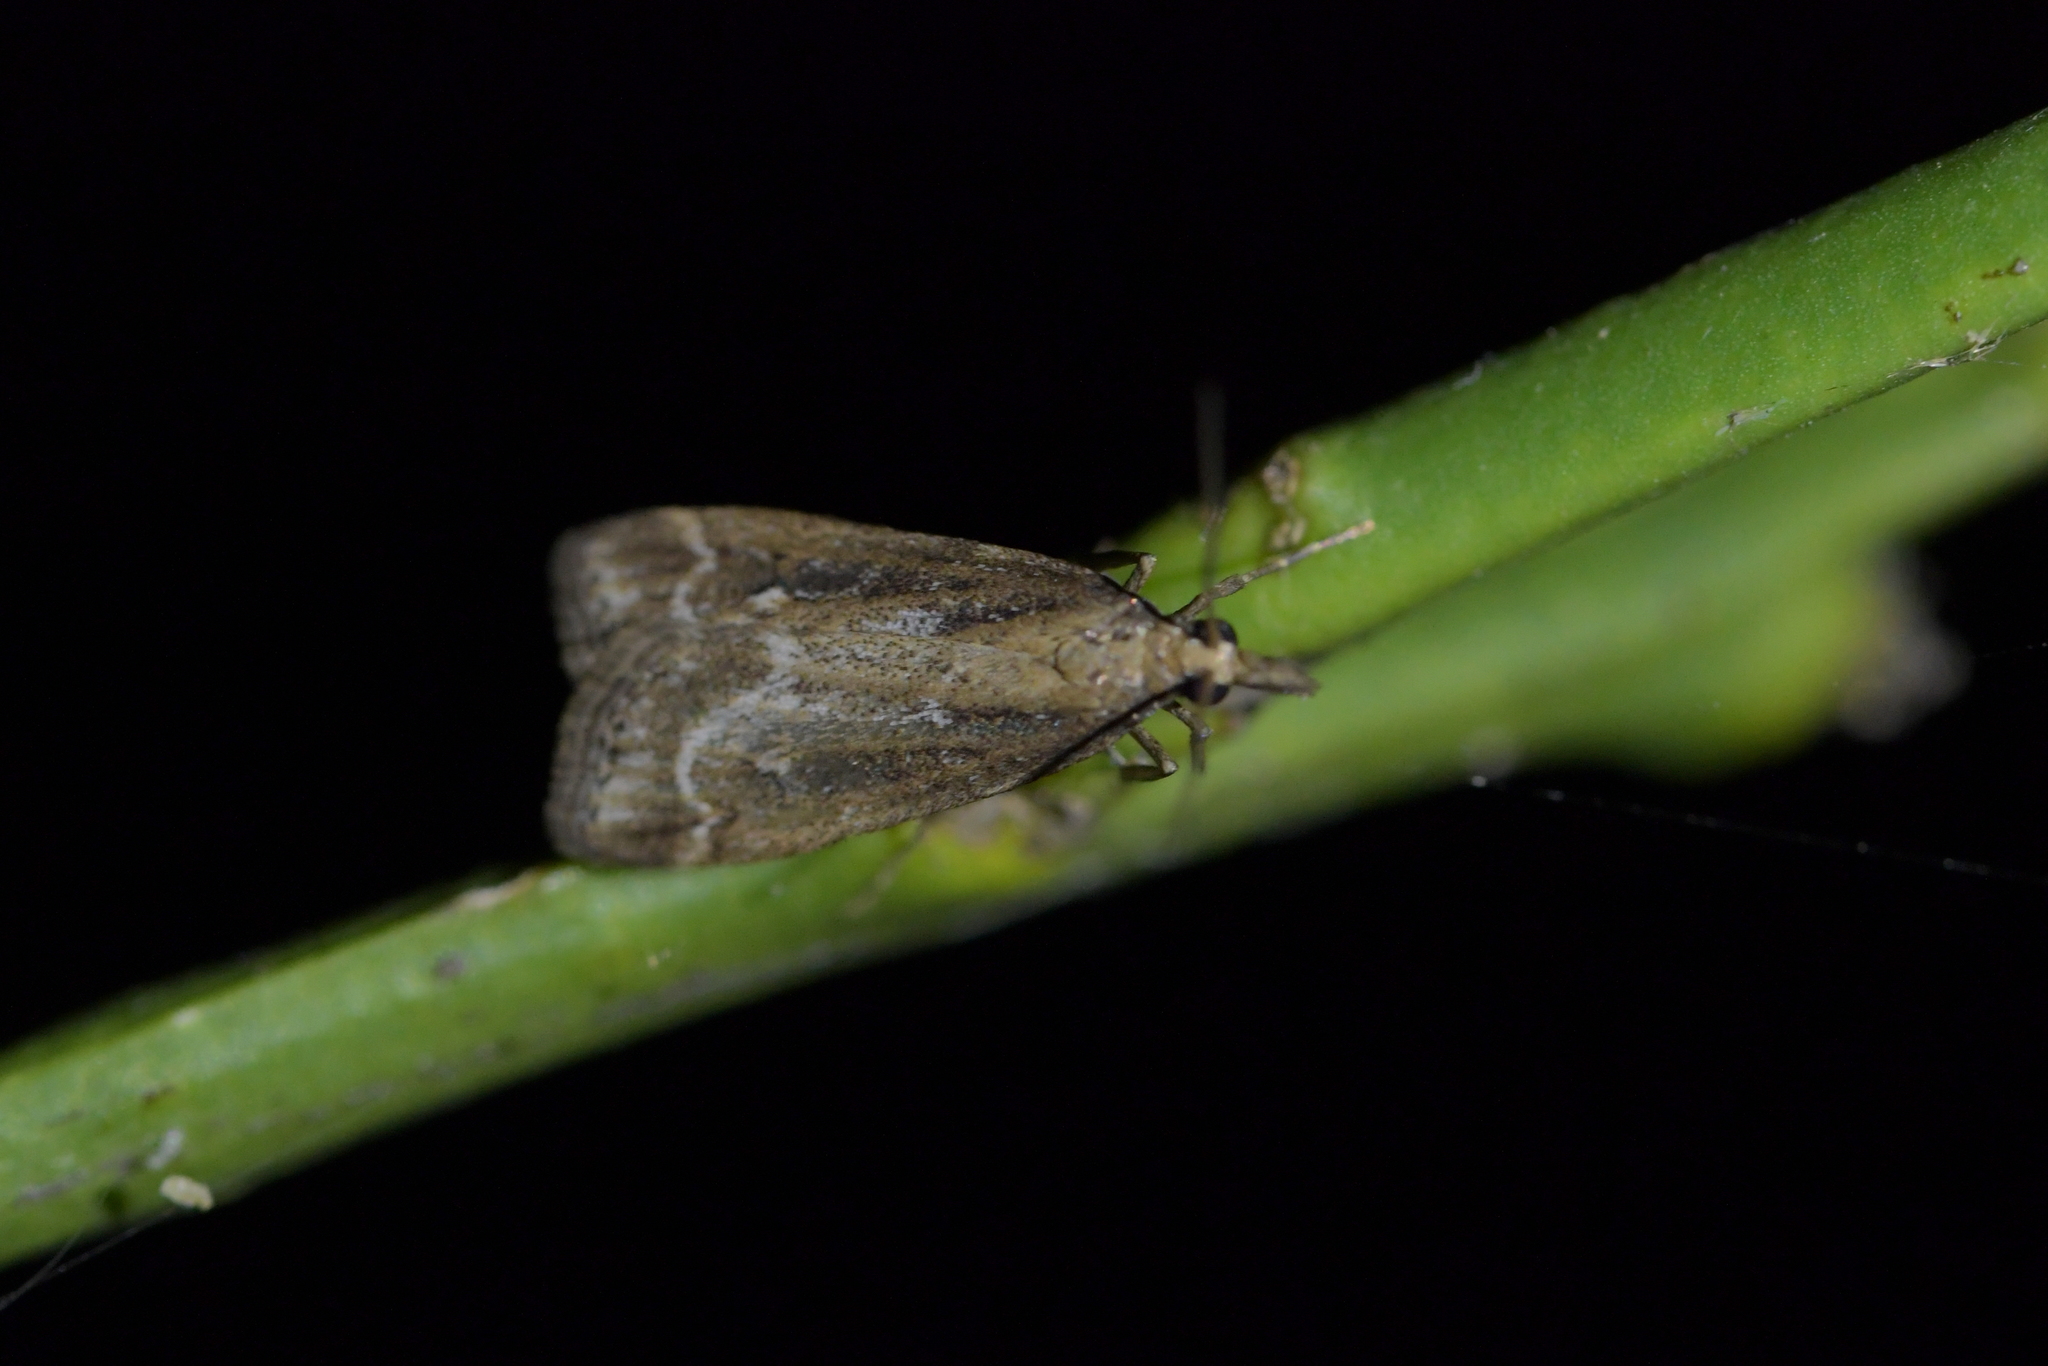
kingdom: Animalia
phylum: Arthropoda
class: Insecta
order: Lepidoptera
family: Crambidae
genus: Eudonia
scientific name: Eudonia octophora
